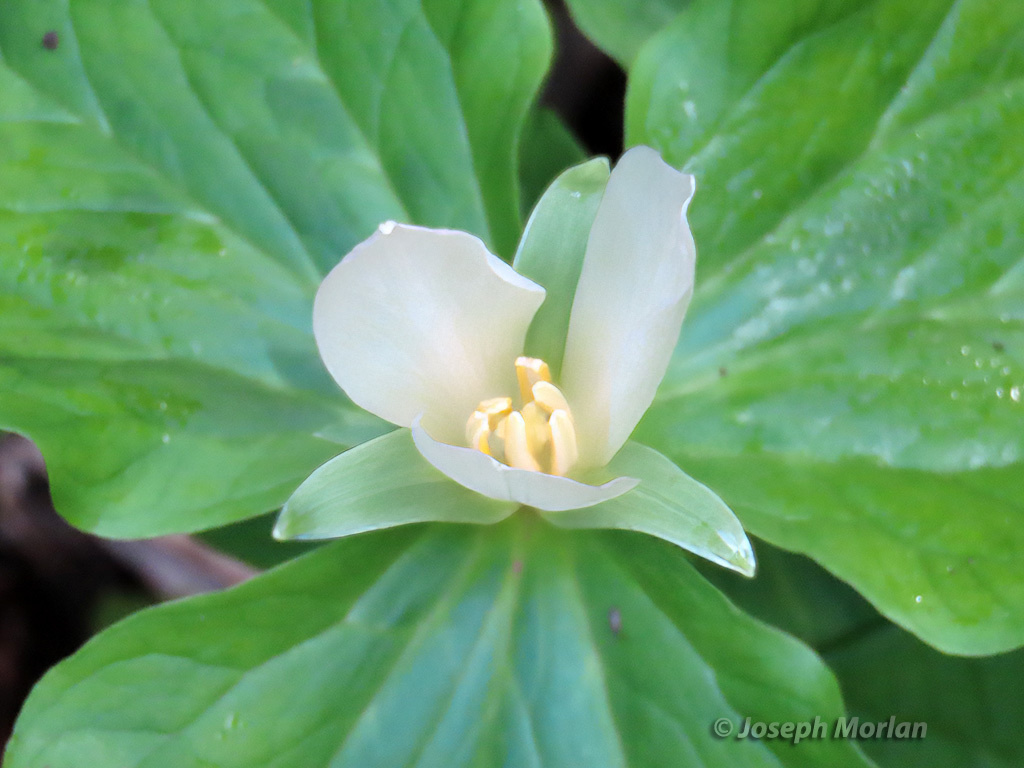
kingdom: Plantae
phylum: Tracheophyta
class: Liliopsida
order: Liliales
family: Melanthiaceae
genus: Trillium
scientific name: Trillium chloropetalum
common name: Giant trillium
